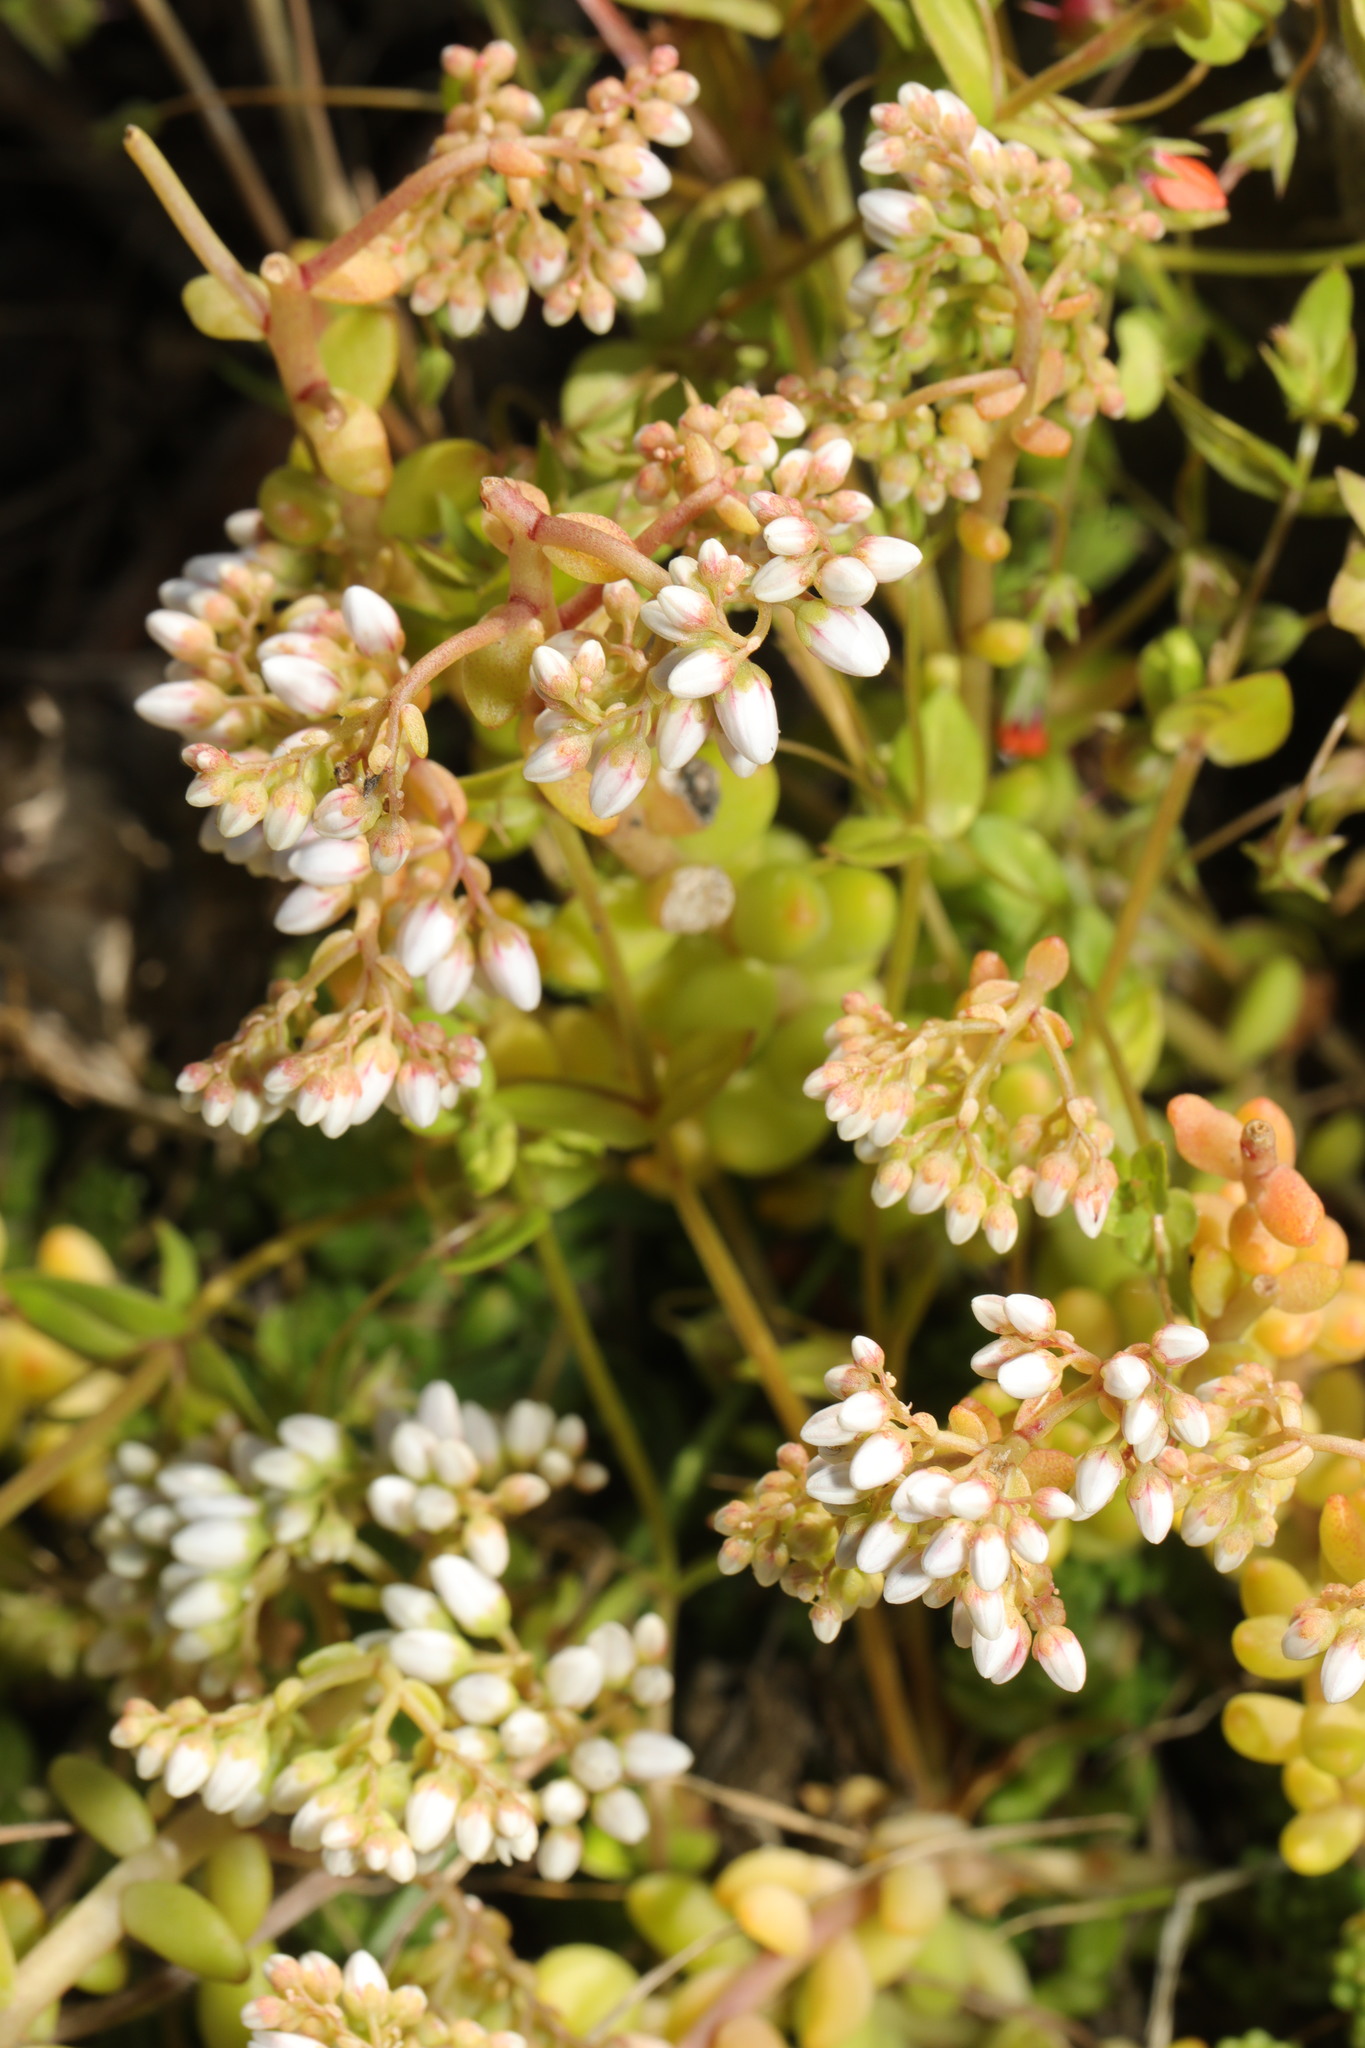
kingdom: Plantae
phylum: Tracheophyta
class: Magnoliopsida
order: Saxifragales
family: Crassulaceae
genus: Sedum
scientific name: Sedum album
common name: White stonecrop
